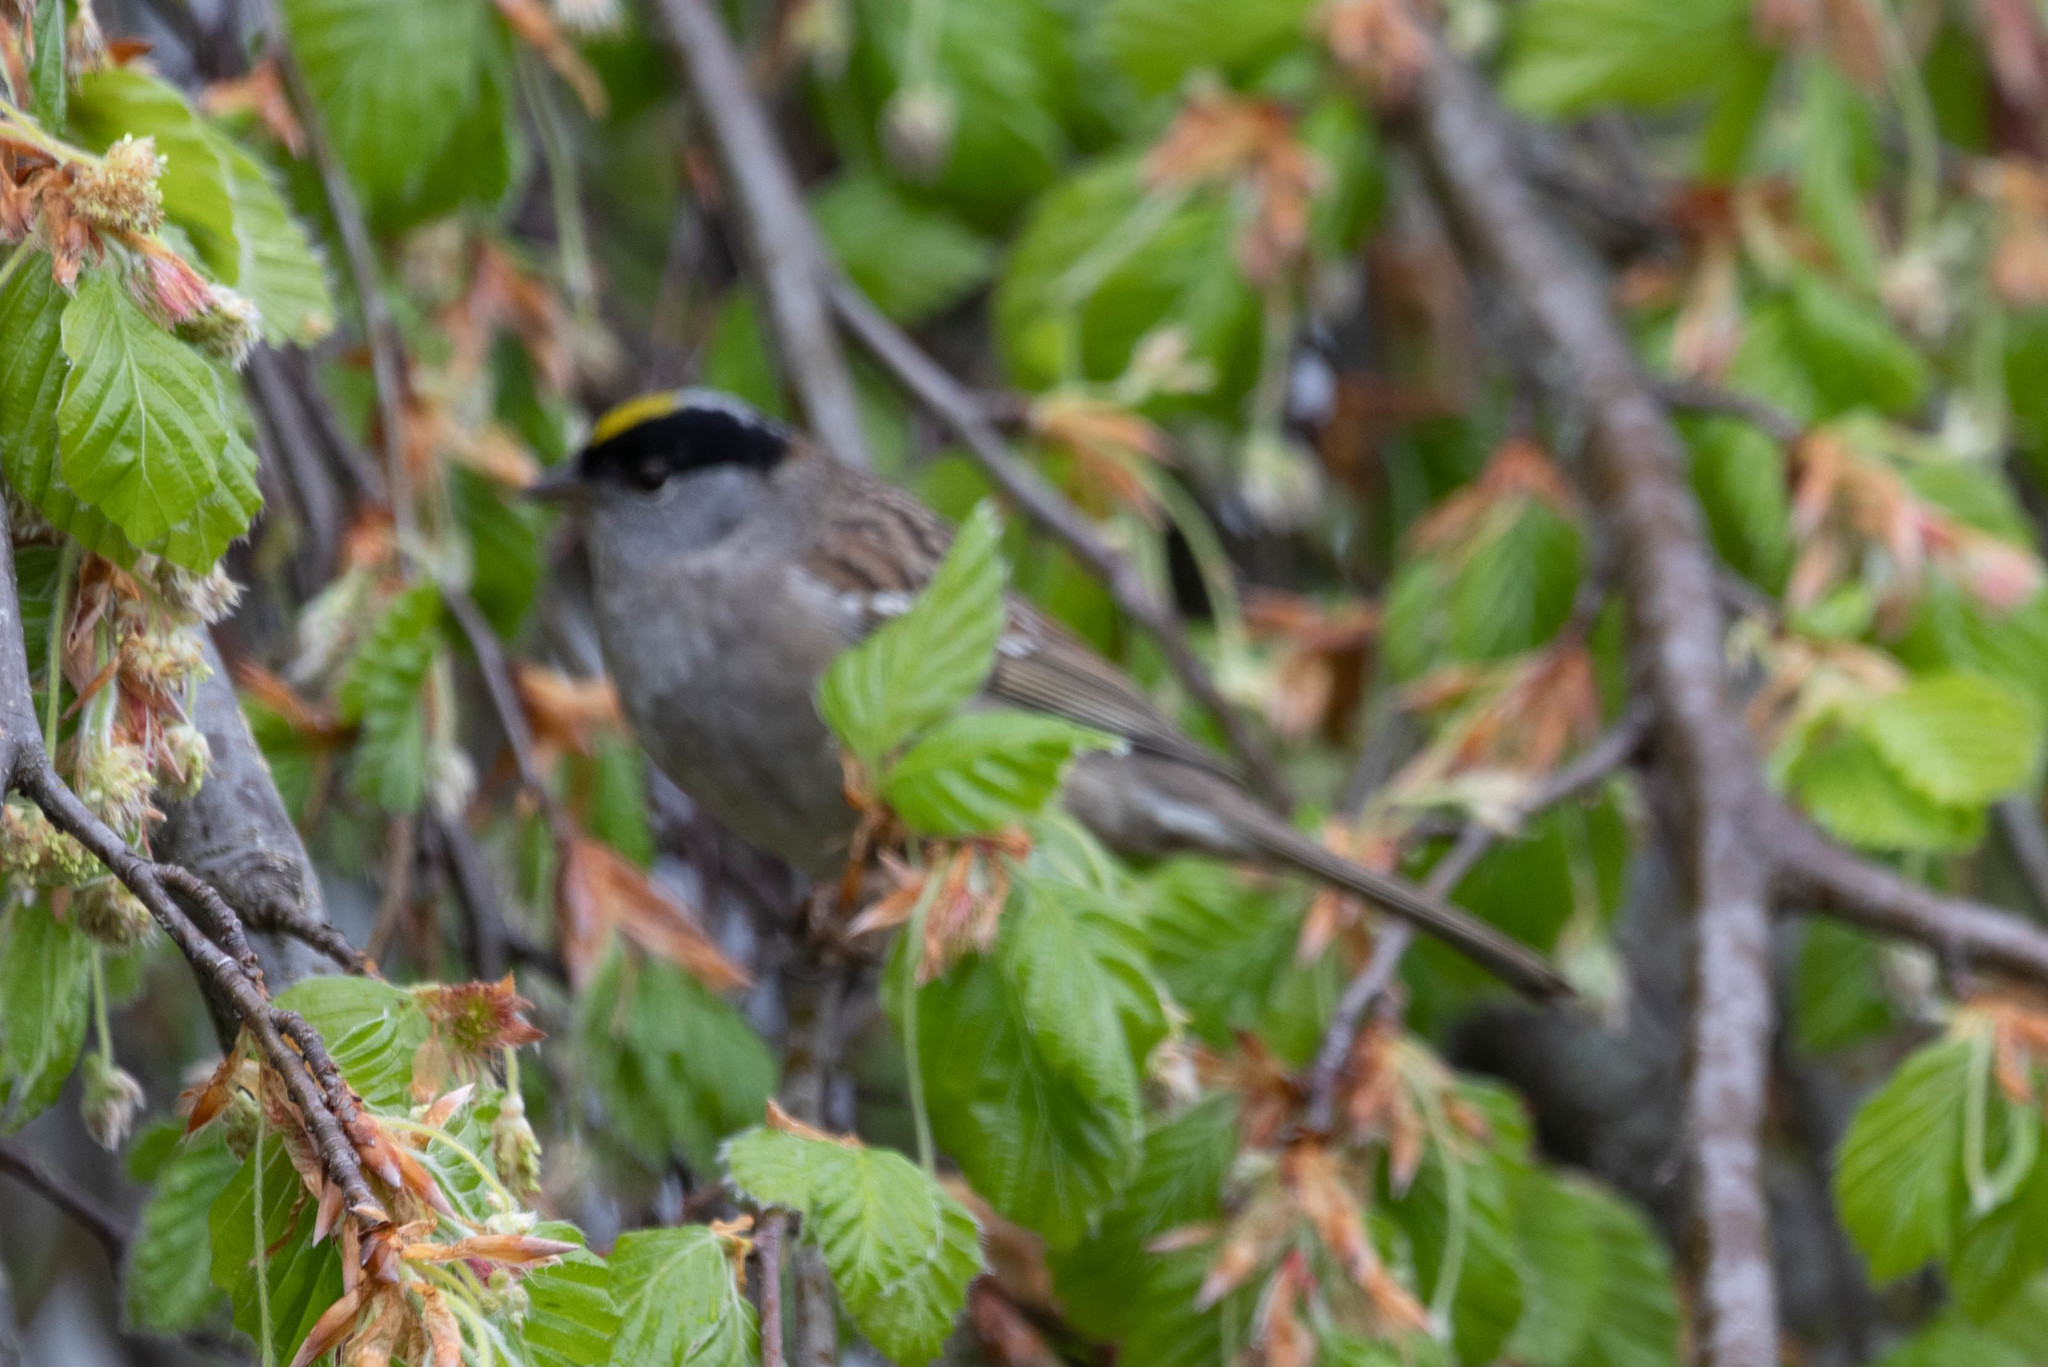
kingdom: Animalia
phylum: Chordata
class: Aves
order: Passeriformes
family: Passerellidae
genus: Zonotrichia
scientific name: Zonotrichia atricapilla
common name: Golden-crowned sparrow
